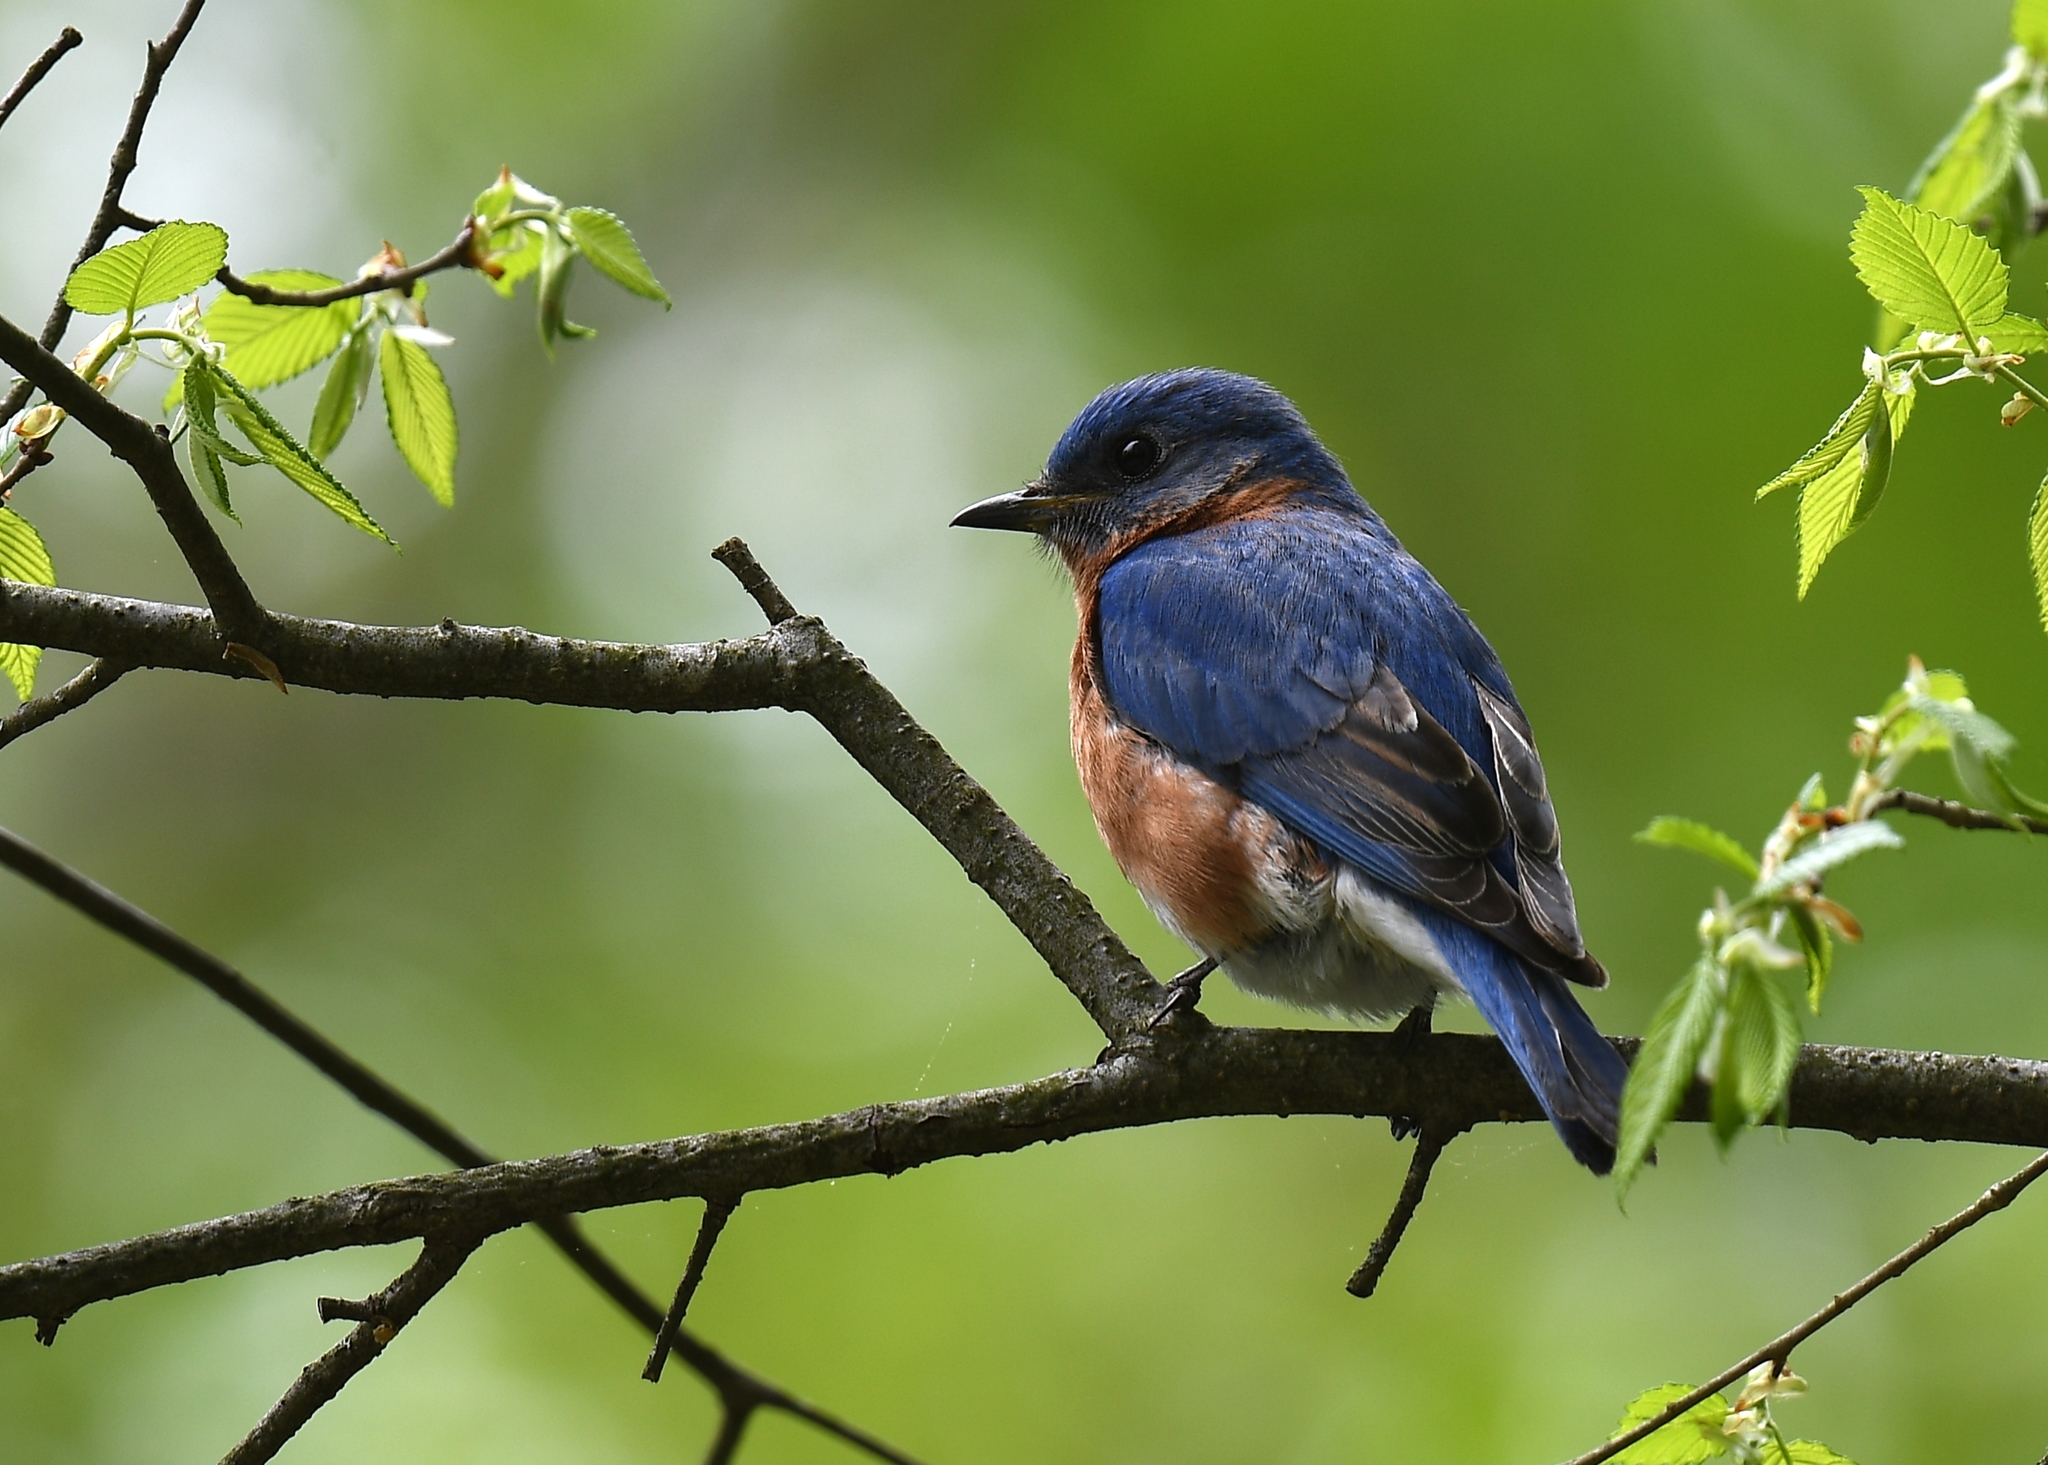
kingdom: Animalia
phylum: Chordata
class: Aves
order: Passeriformes
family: Turdidae
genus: Sialia
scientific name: Sialia sialis
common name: Eastern bluebird
